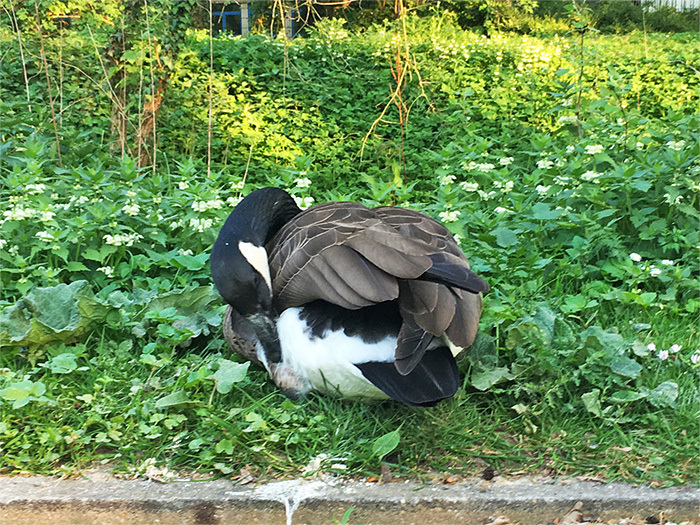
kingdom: Animalia
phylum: Chordata
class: Aves
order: Anseriformes
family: Anatidae
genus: Branta
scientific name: Branta canadensis
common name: Canada goose
